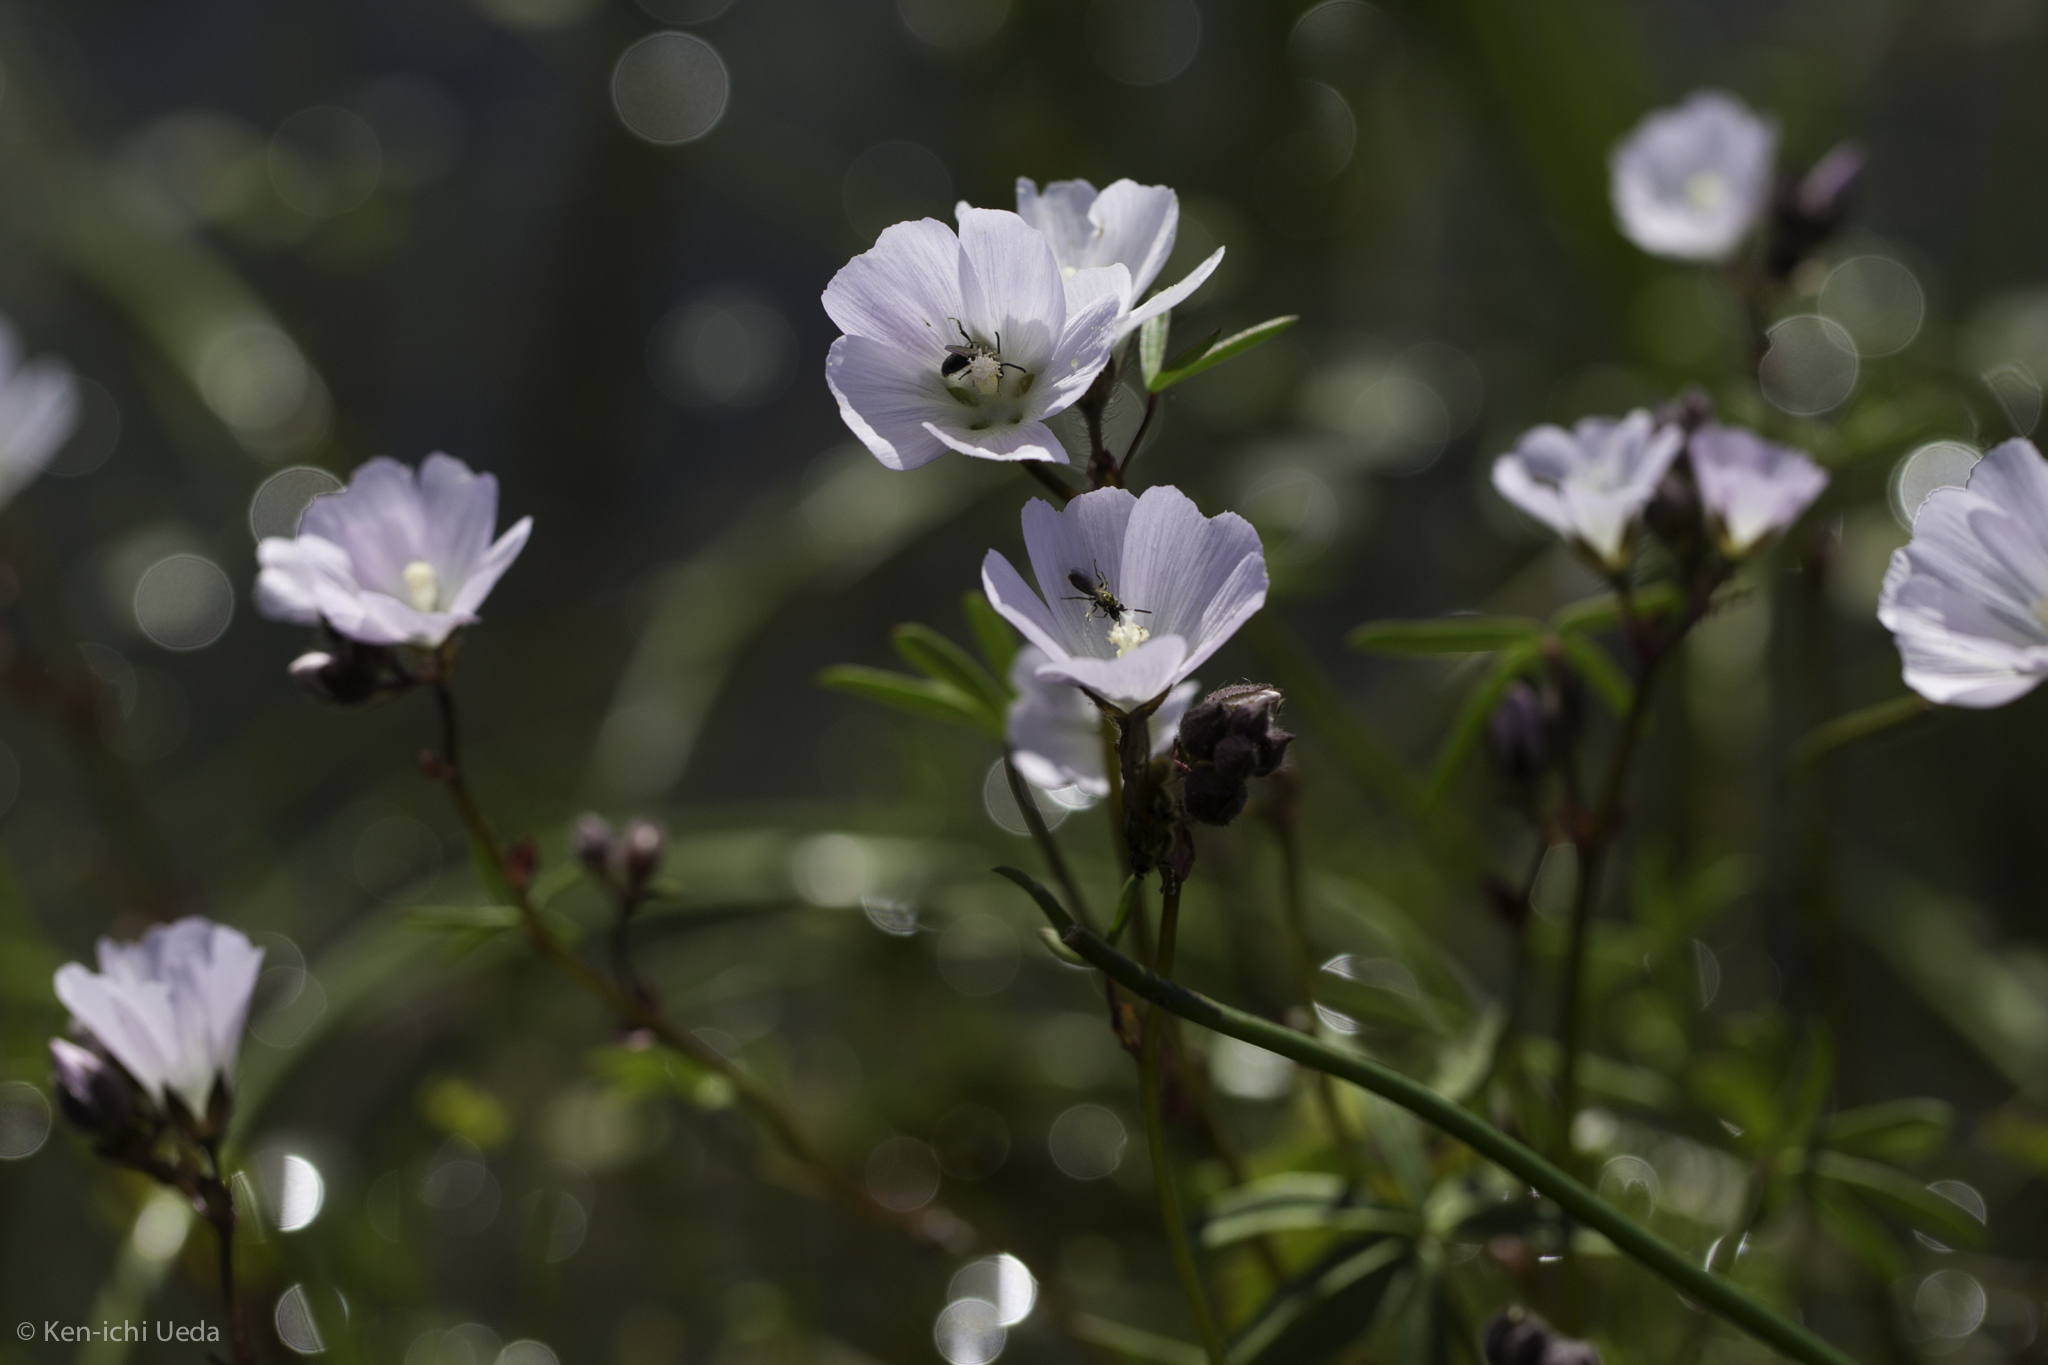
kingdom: Plantae
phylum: Tracheophyta
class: Magnoliopsida
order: Malvales
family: Malvaceae
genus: Sidalcea
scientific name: Sidalcea calycosa
